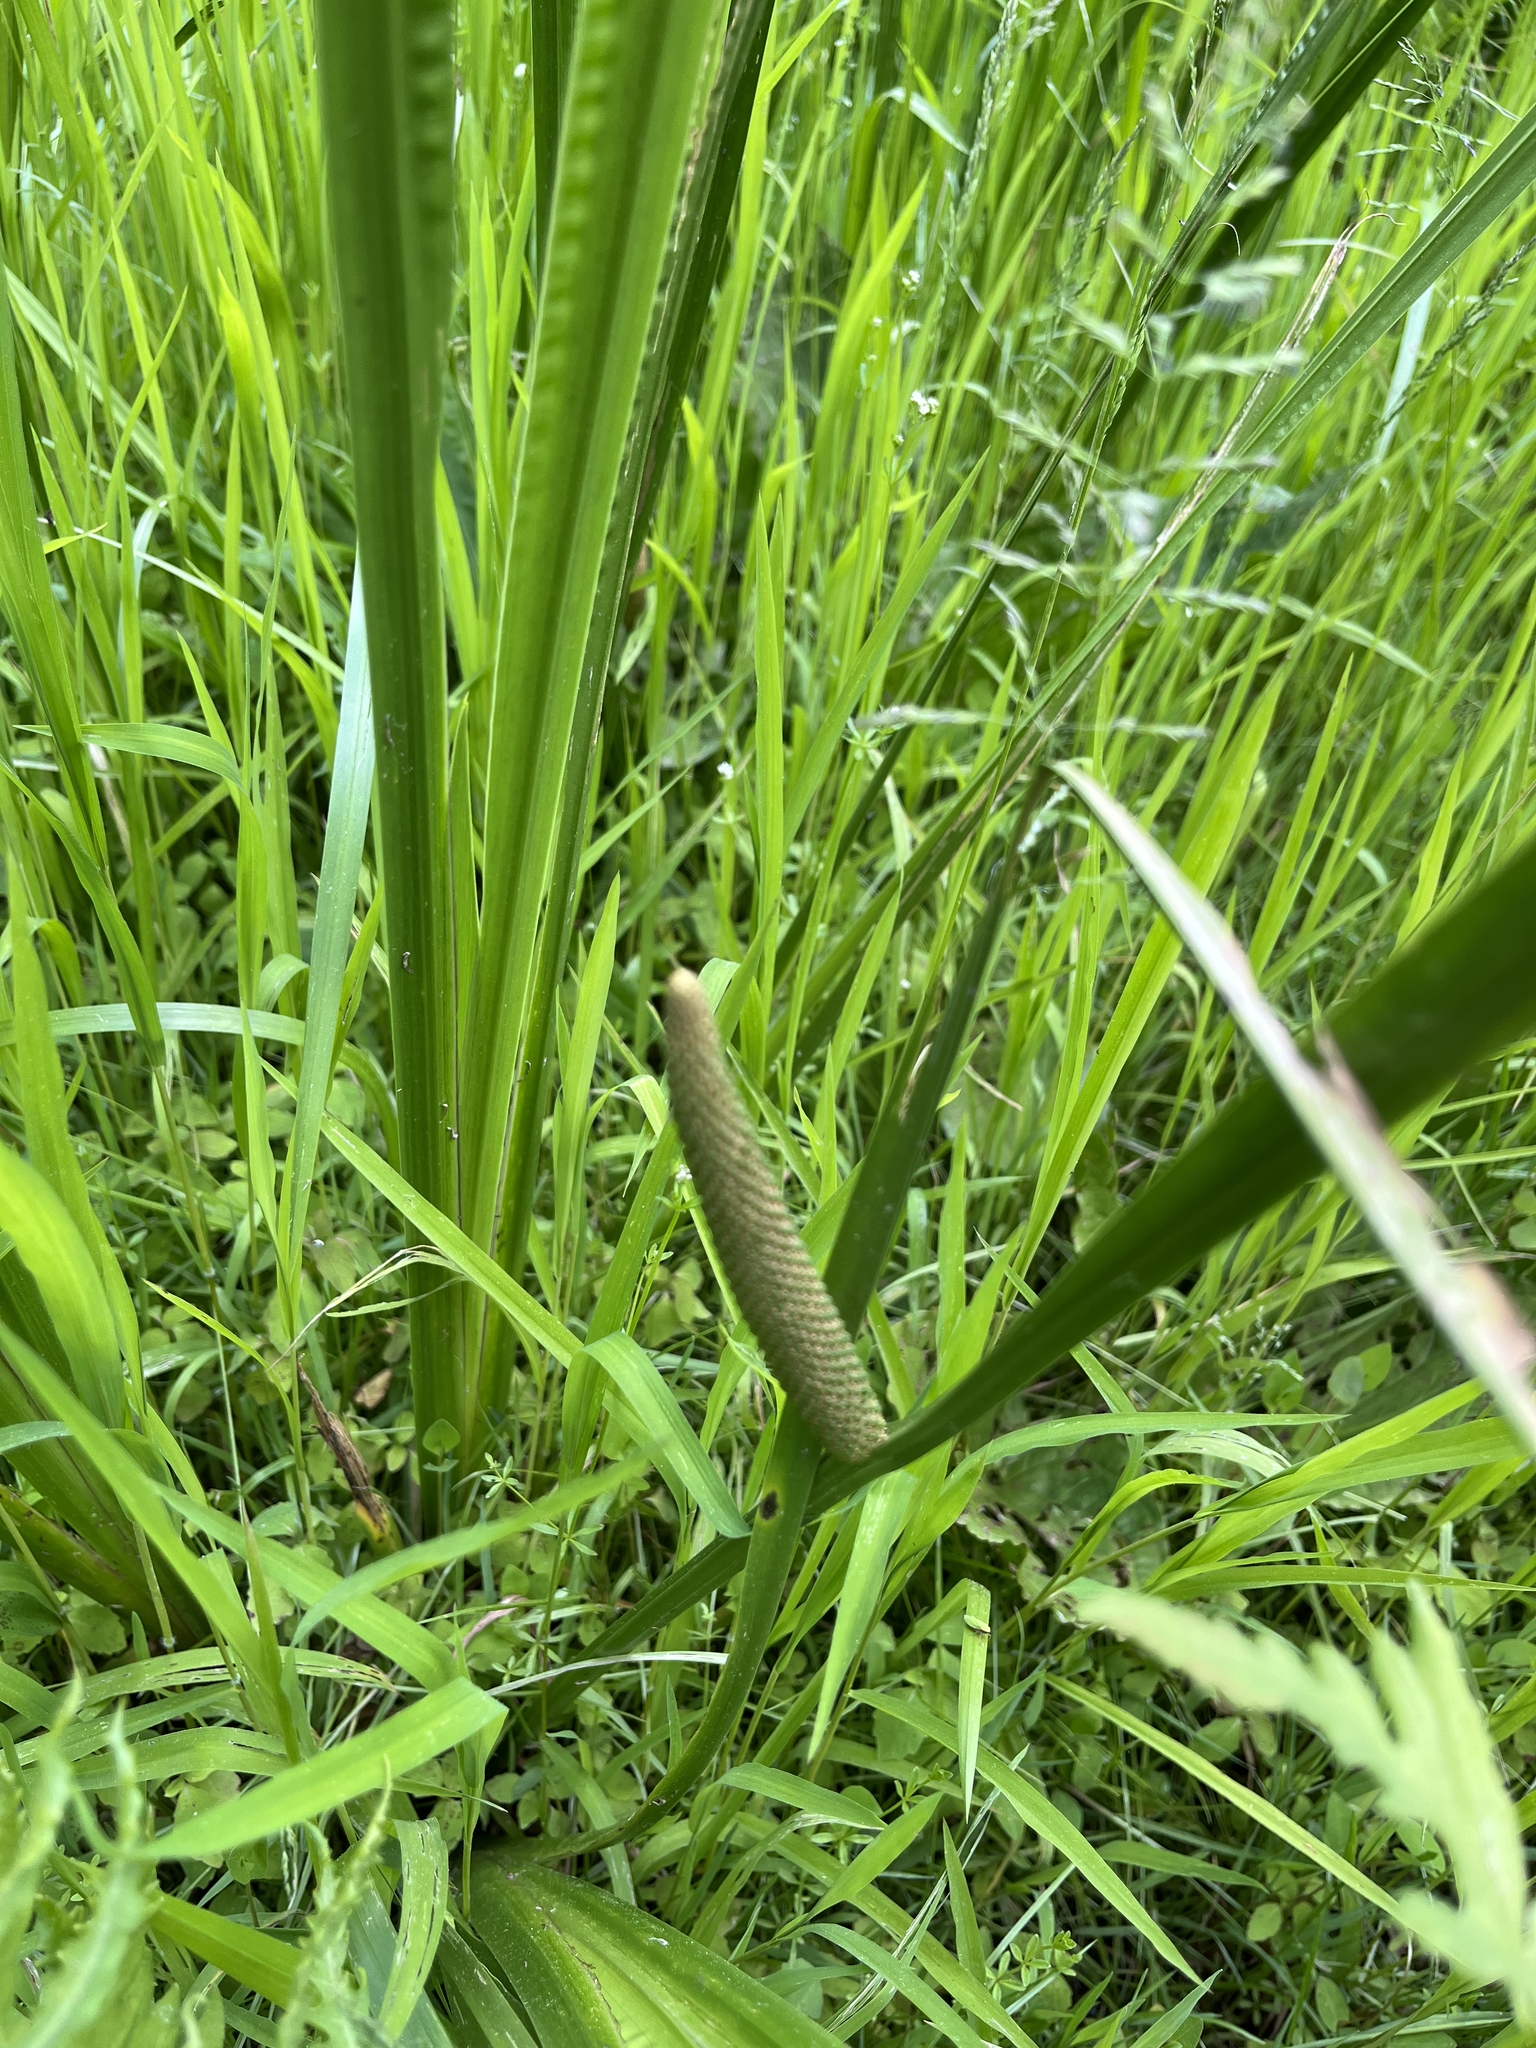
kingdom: Plantae
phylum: Tracheophyta
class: Liliopsida
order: Acorales
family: Acoraceae
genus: Acorus
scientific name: Acorus calamus
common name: Sweet-flag
